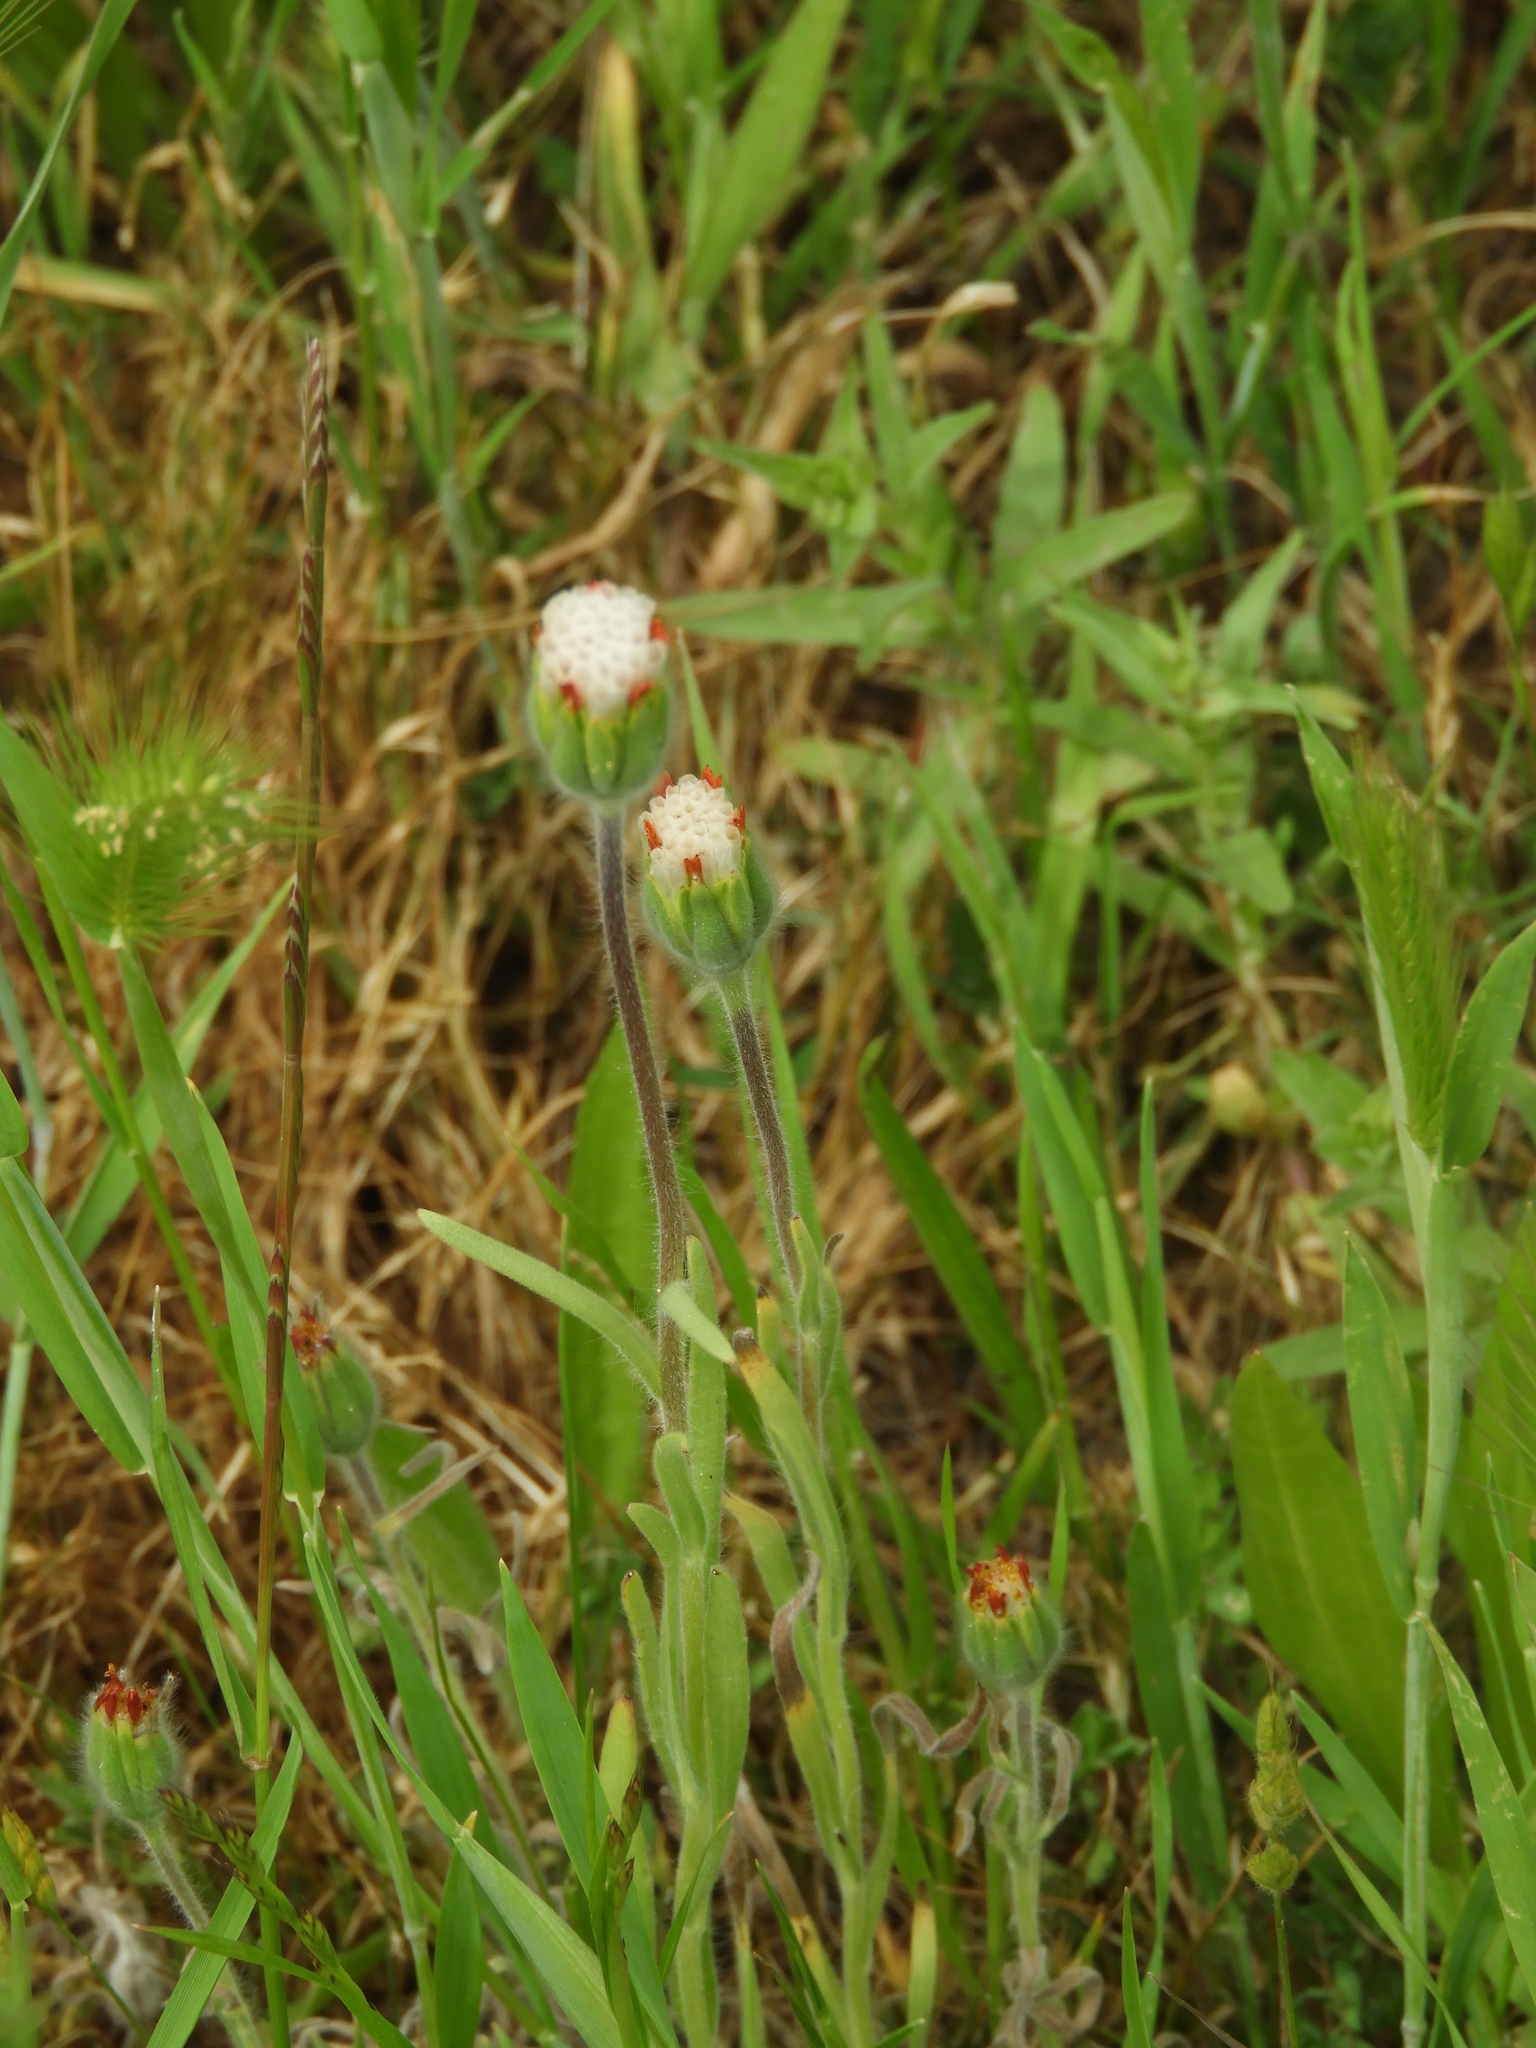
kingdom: Plantae
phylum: Tracheophyta
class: Magnoliopsida
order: Asterales
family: Asteraceae
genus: Achyrachaena
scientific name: Achyrachaena mollis
